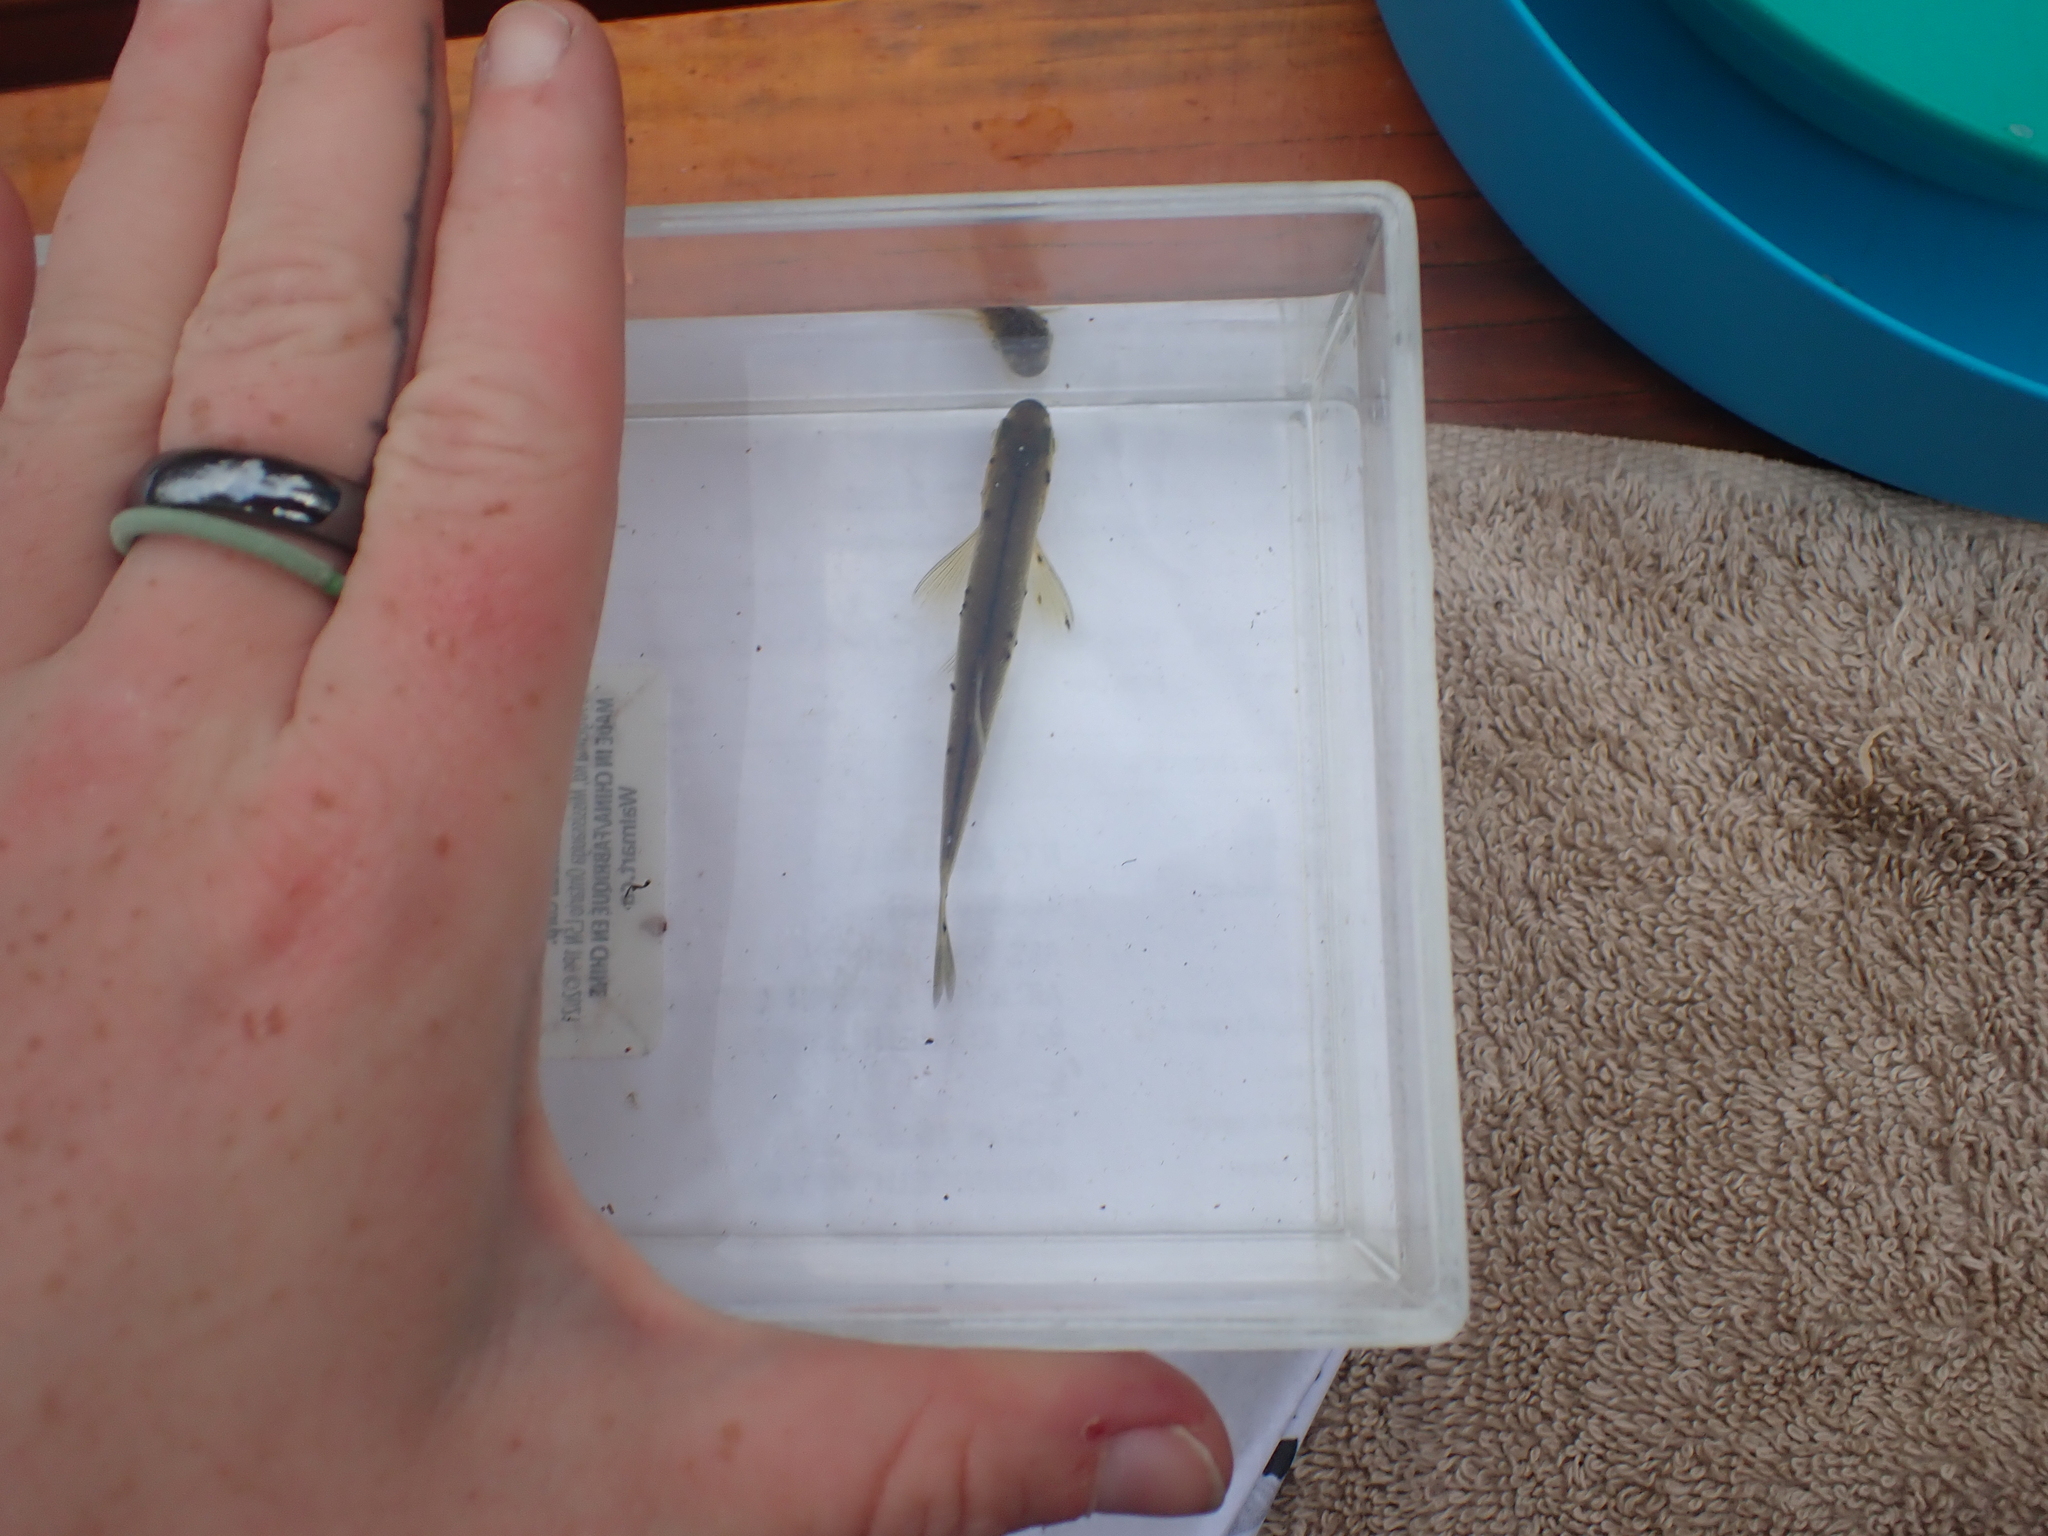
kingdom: Animalia
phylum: Chordata
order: Cypriniformes
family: Cyprinidae
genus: Richardsonius
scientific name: Richardsonius balteatus
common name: Redside shiner
